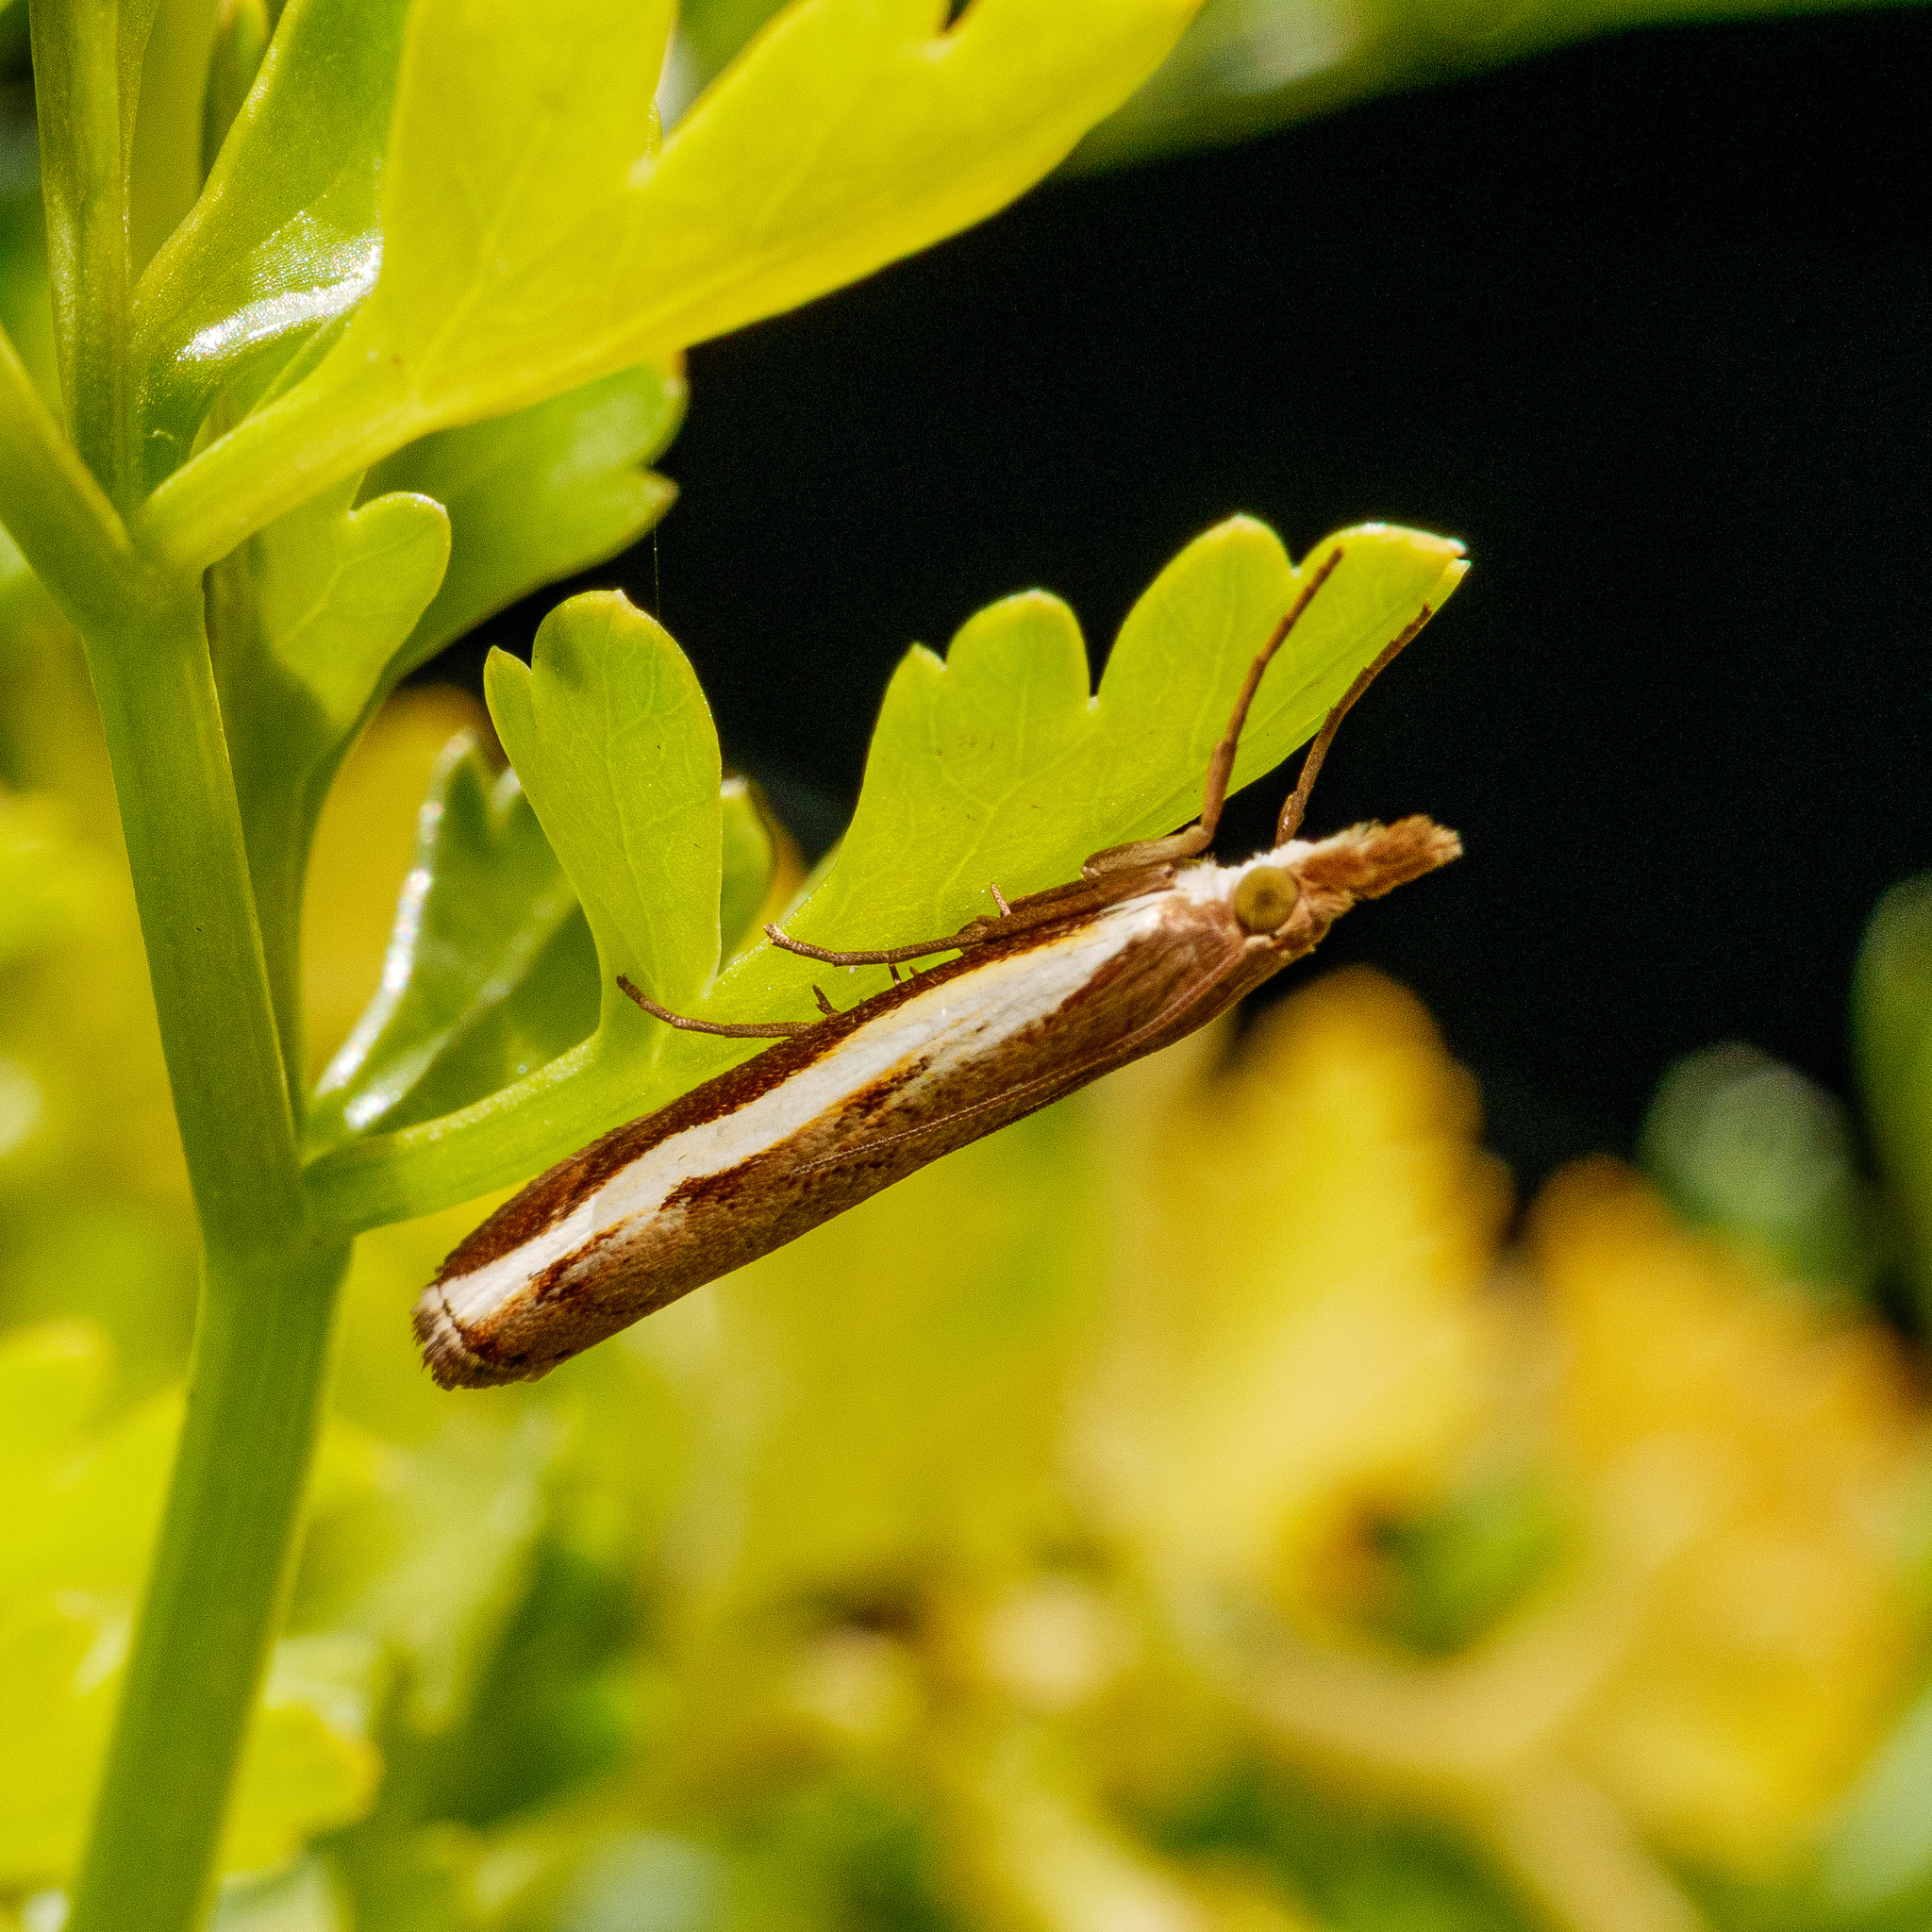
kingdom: Animalia
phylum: Arthropoda
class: Insecta
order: Lepidoptera
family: Crambidae
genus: Orocrambus
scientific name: Orocrambus flexuosellus
